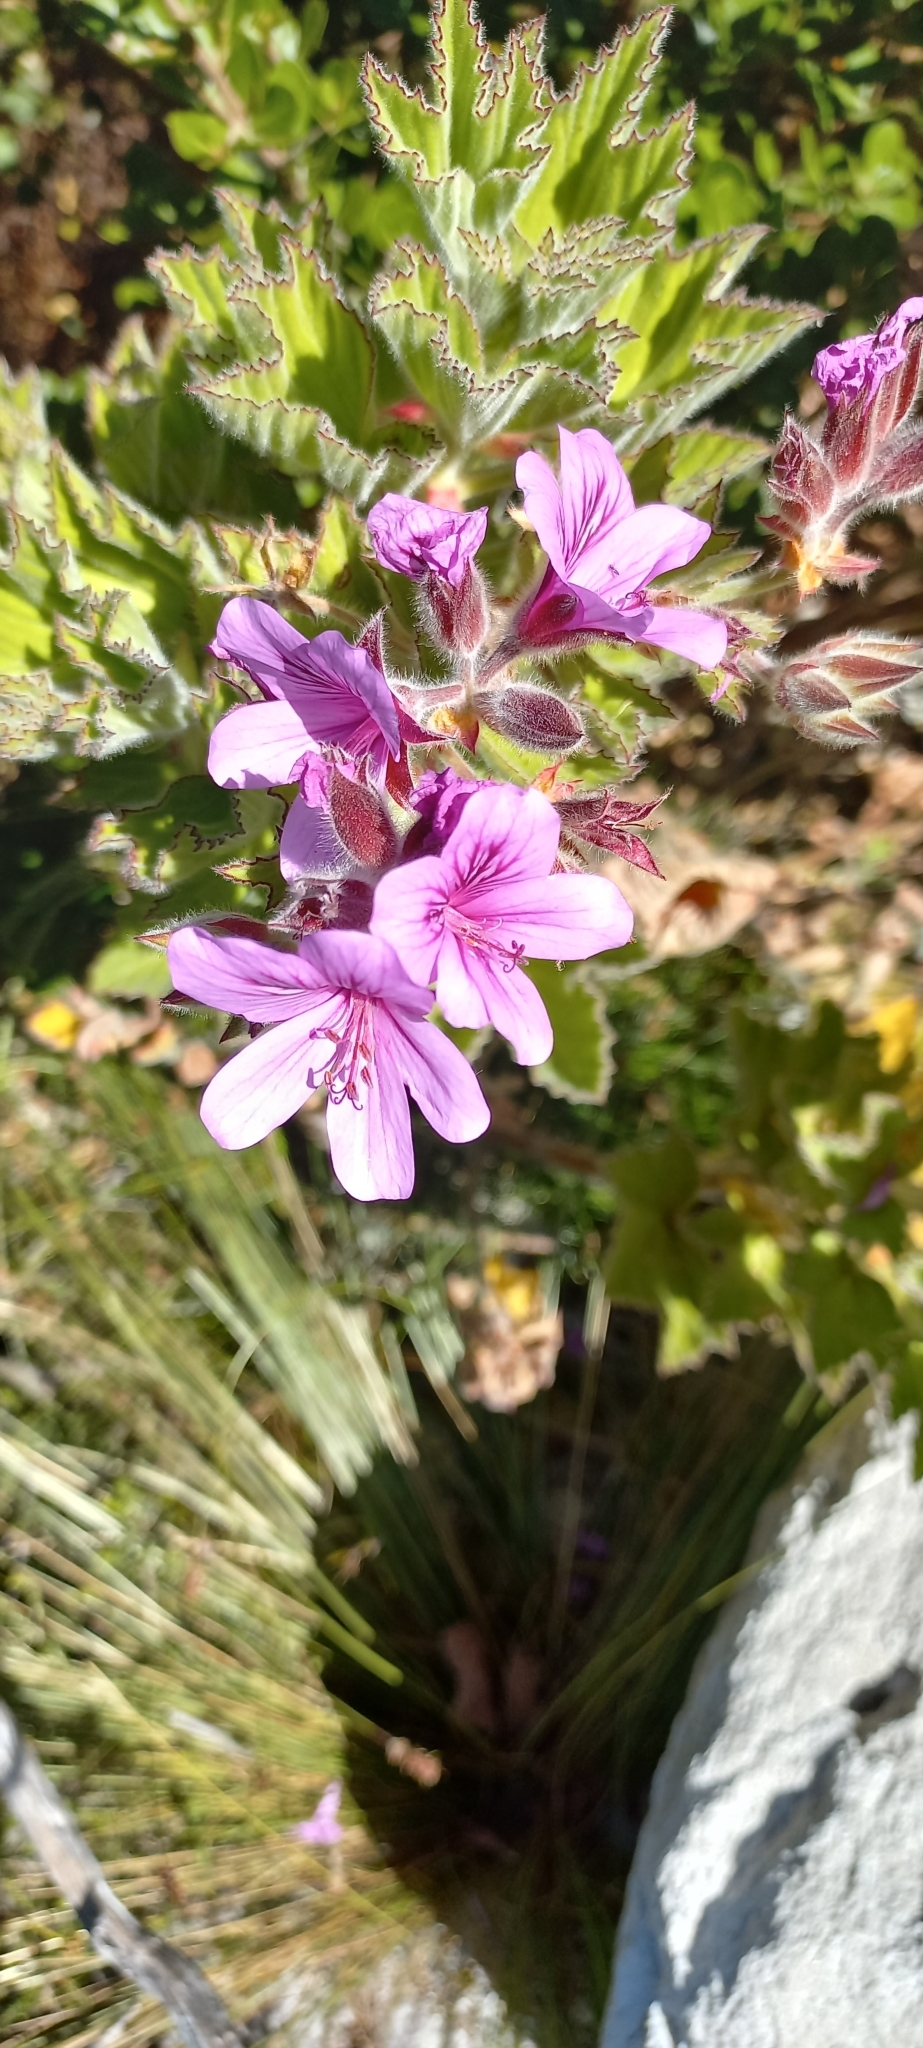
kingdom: Plantae
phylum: Tracheophyta
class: Magnoliopsida
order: Geraniales
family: Geraniaceae
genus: Pelargonium
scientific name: Pelargonium cucullatum
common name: Tree pelargonium
